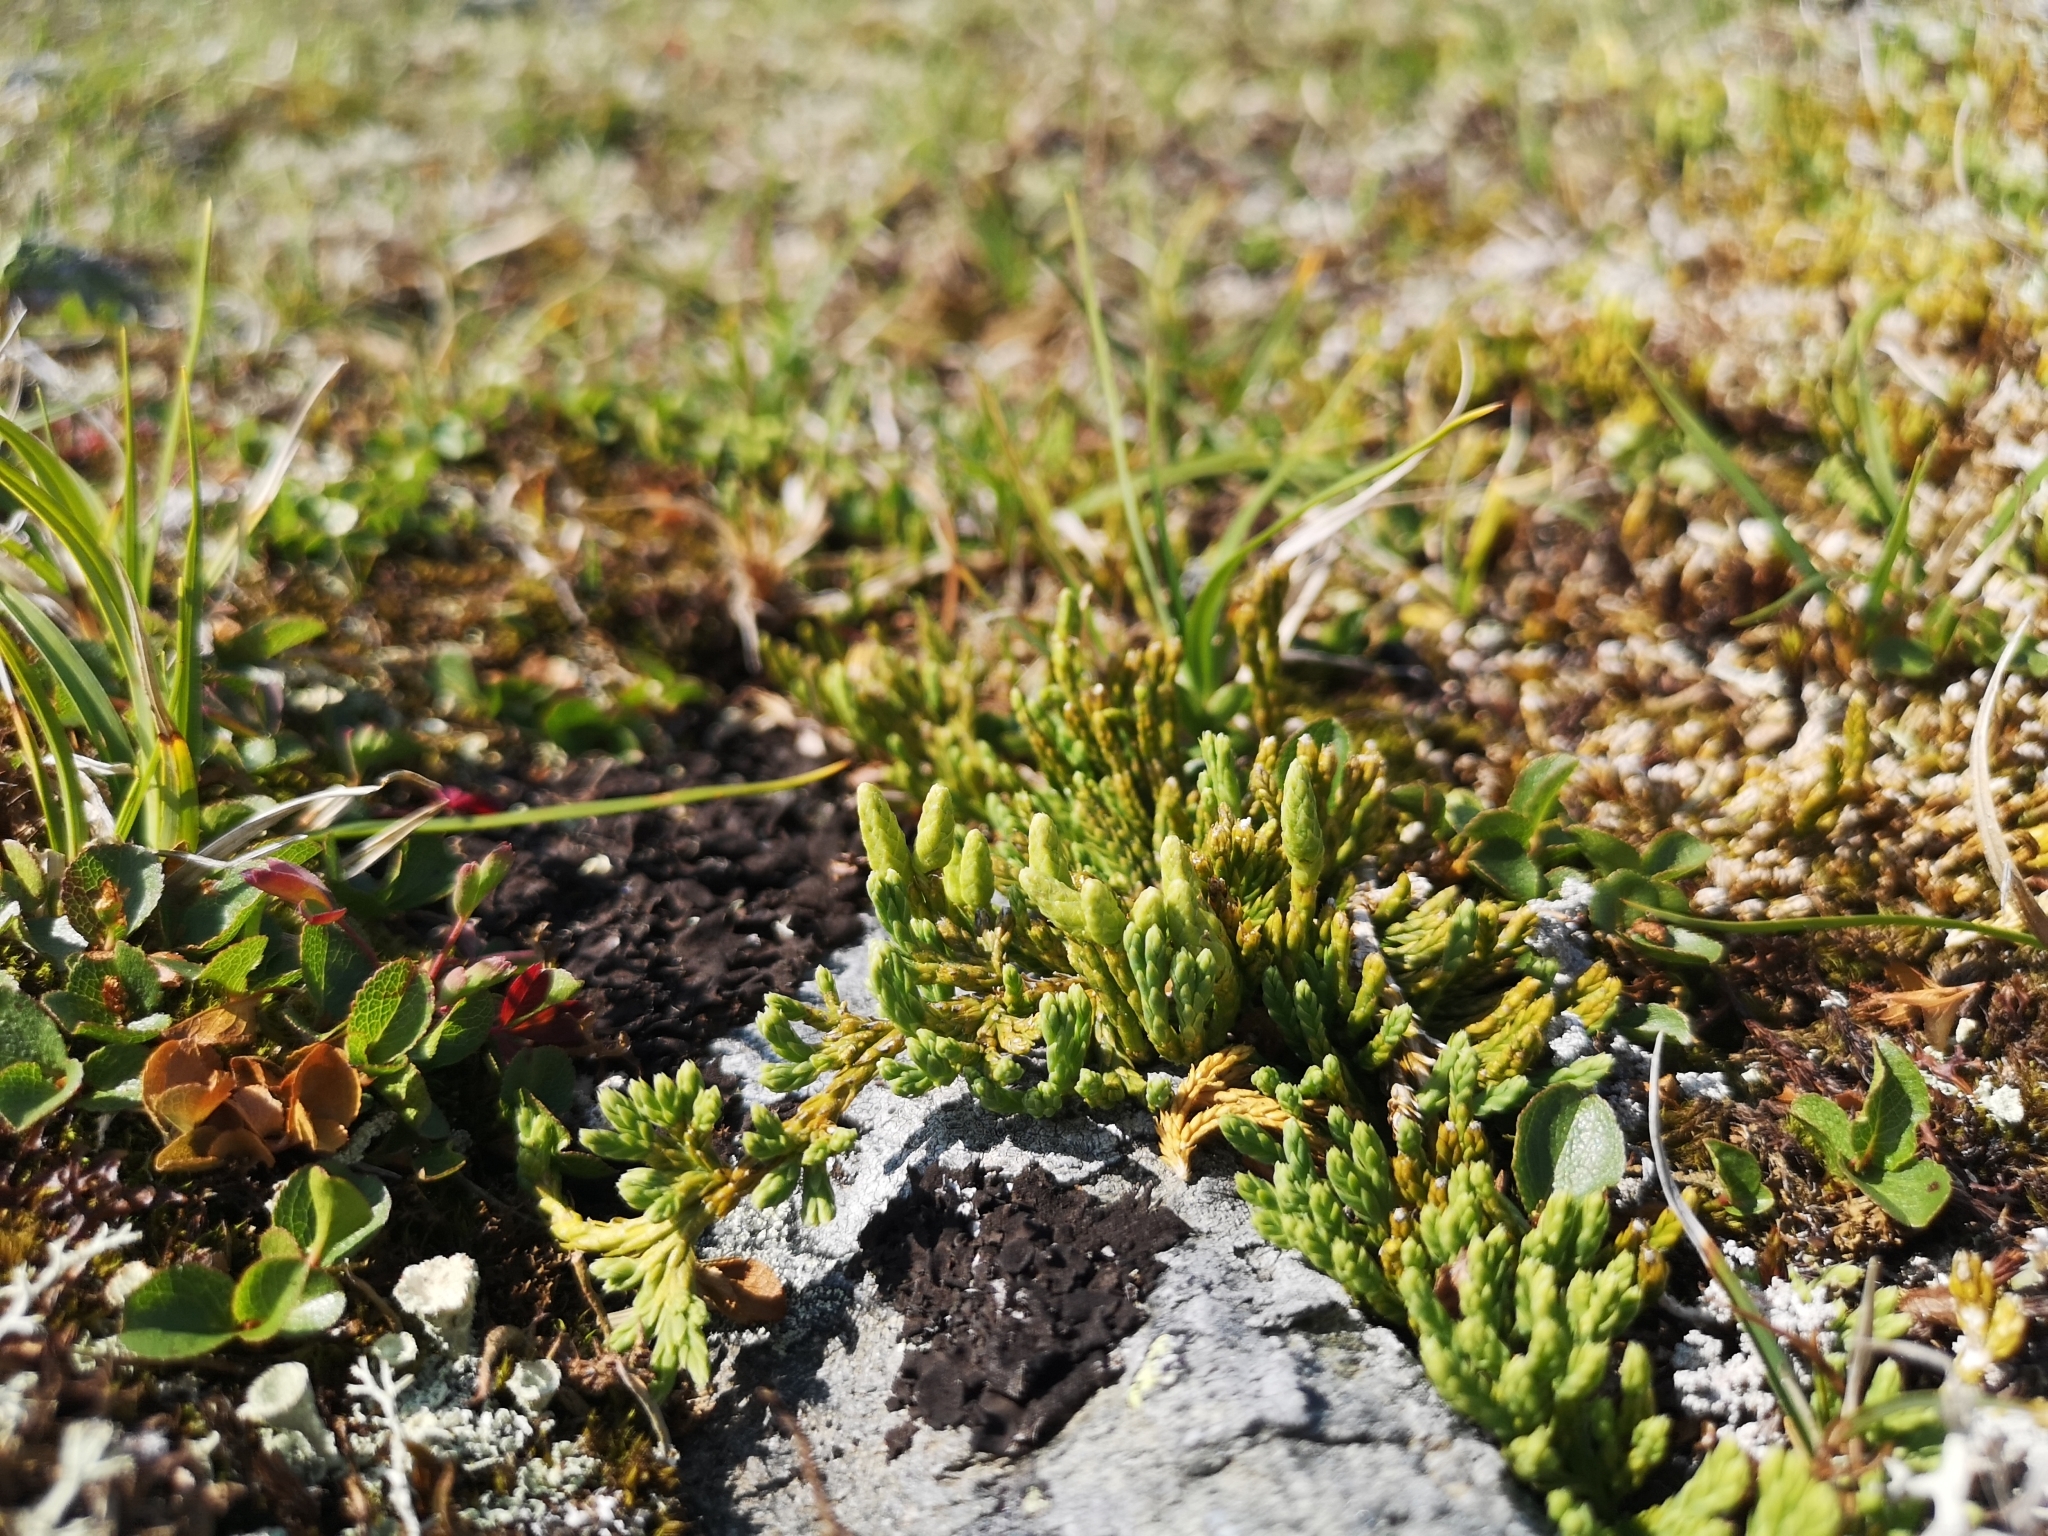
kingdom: Plantae
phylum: Tracheophyta
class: Lycopodiopsida
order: Lycopodiales
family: Lycopodiaceae
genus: Diphasiastrum
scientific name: Diphasiastrum alpinum
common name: Alpine clubmoss
